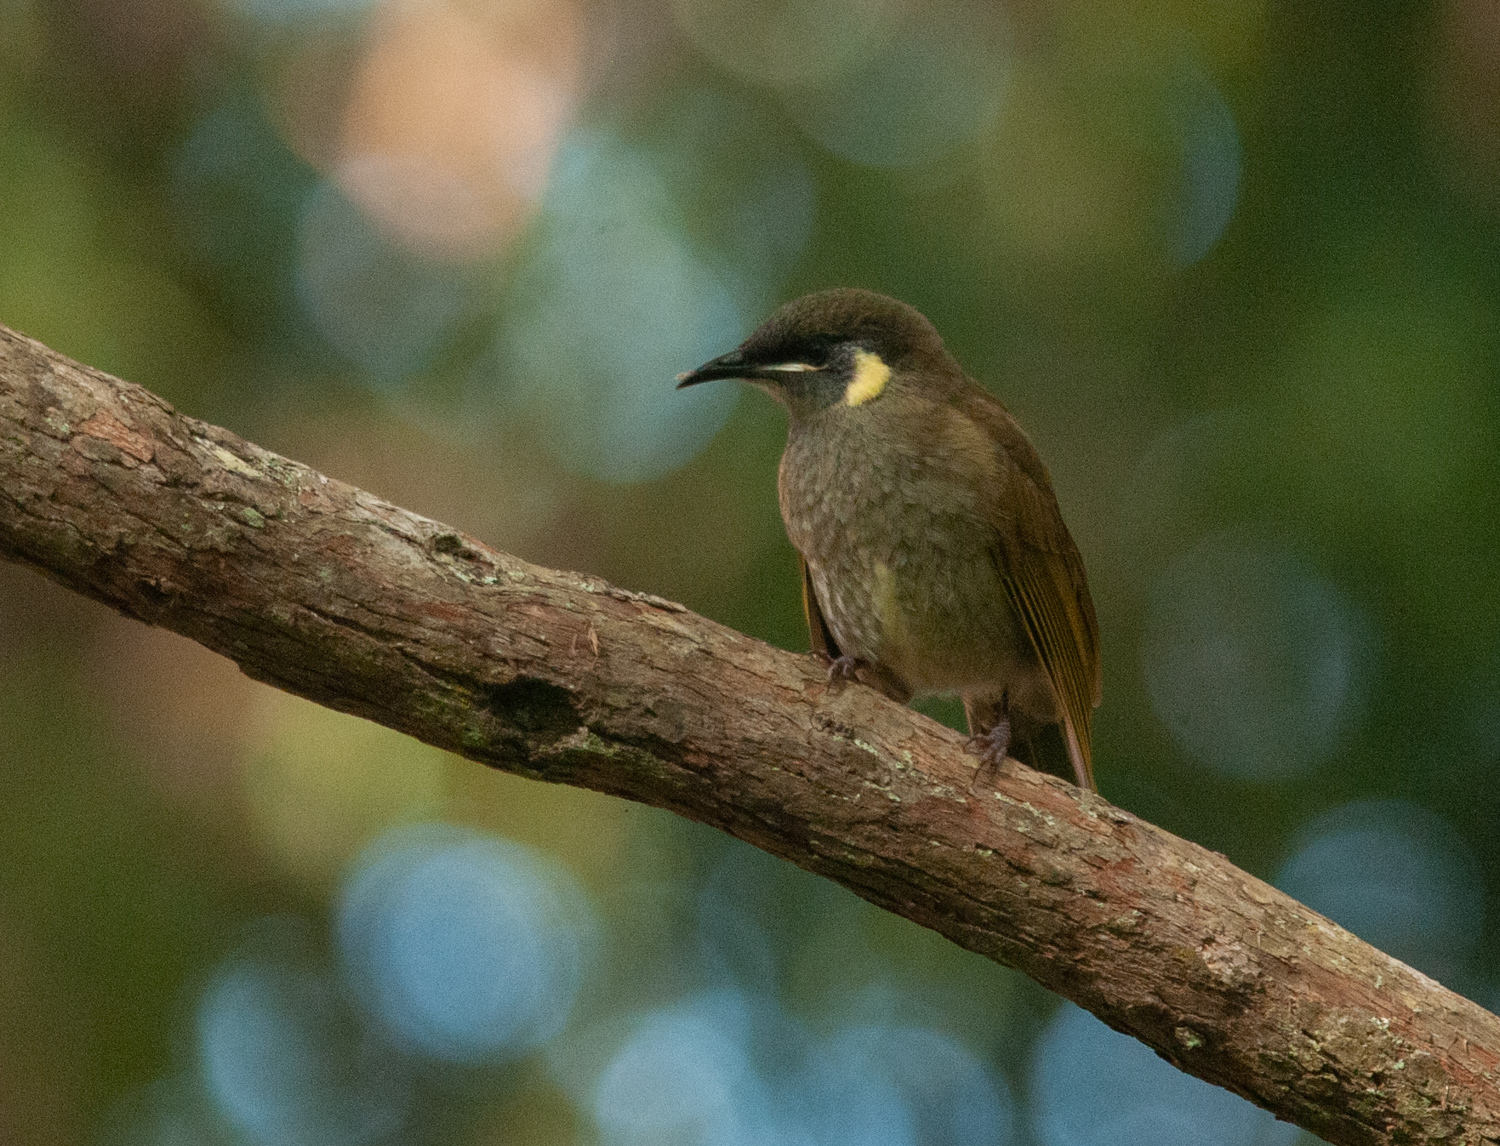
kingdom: Animalia
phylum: Chordata
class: Aves
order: Passeriformes
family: Meliphagidae
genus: Meliphaga
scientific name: Meliphaga lewinii
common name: Lewin's honeyeater
